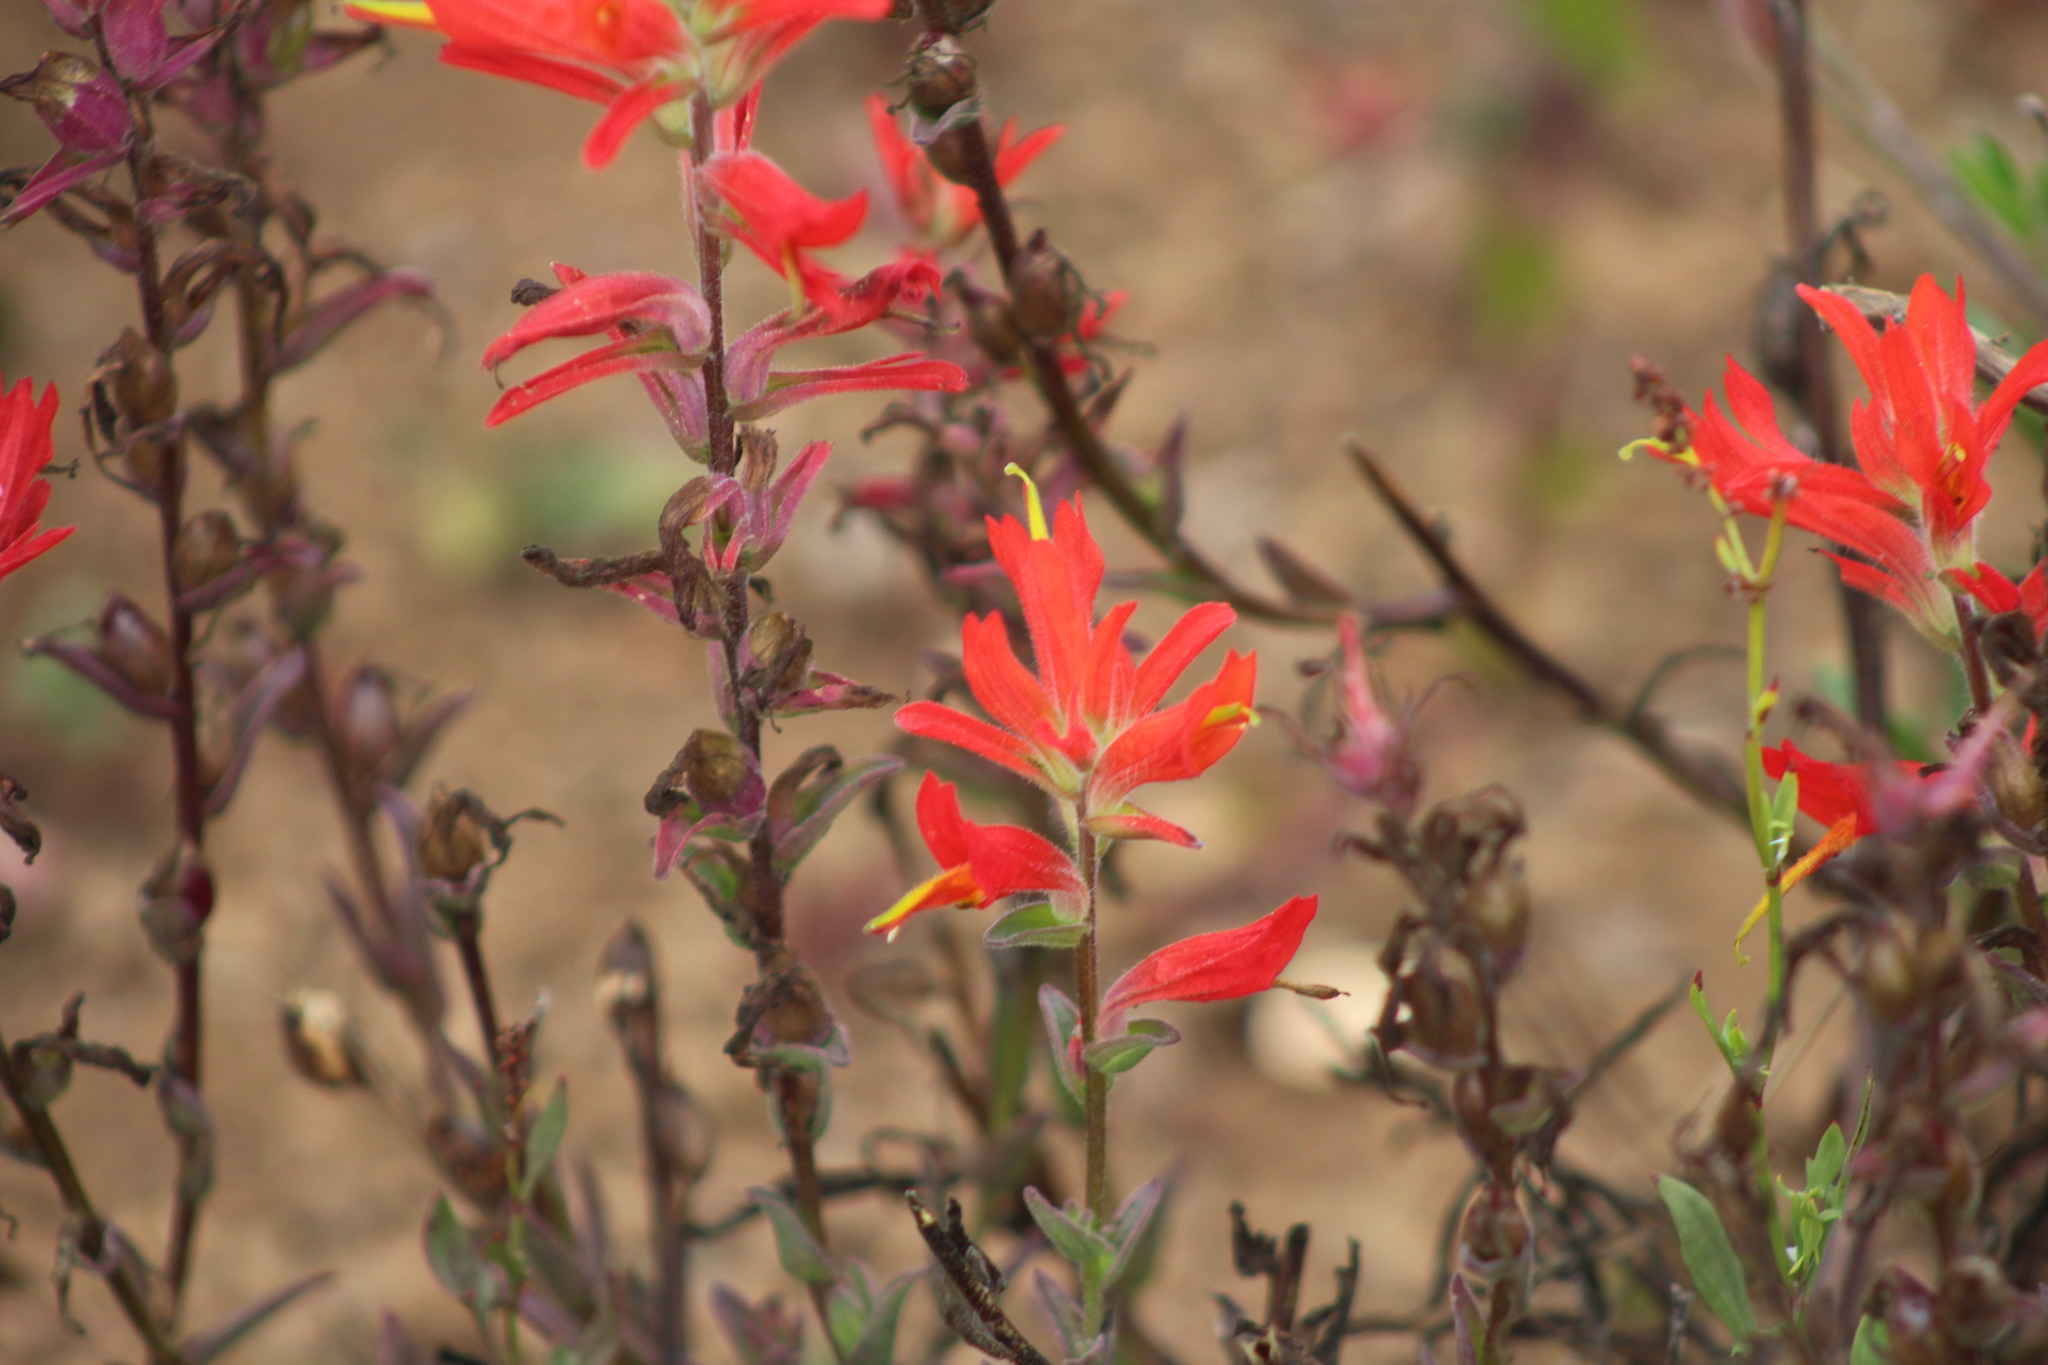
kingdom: Plantae
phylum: Tracheophyta
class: Magnoliopsida
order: Lamiales
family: Orobanchaceae
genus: Castilleja
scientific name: Castilleja subinclusa
